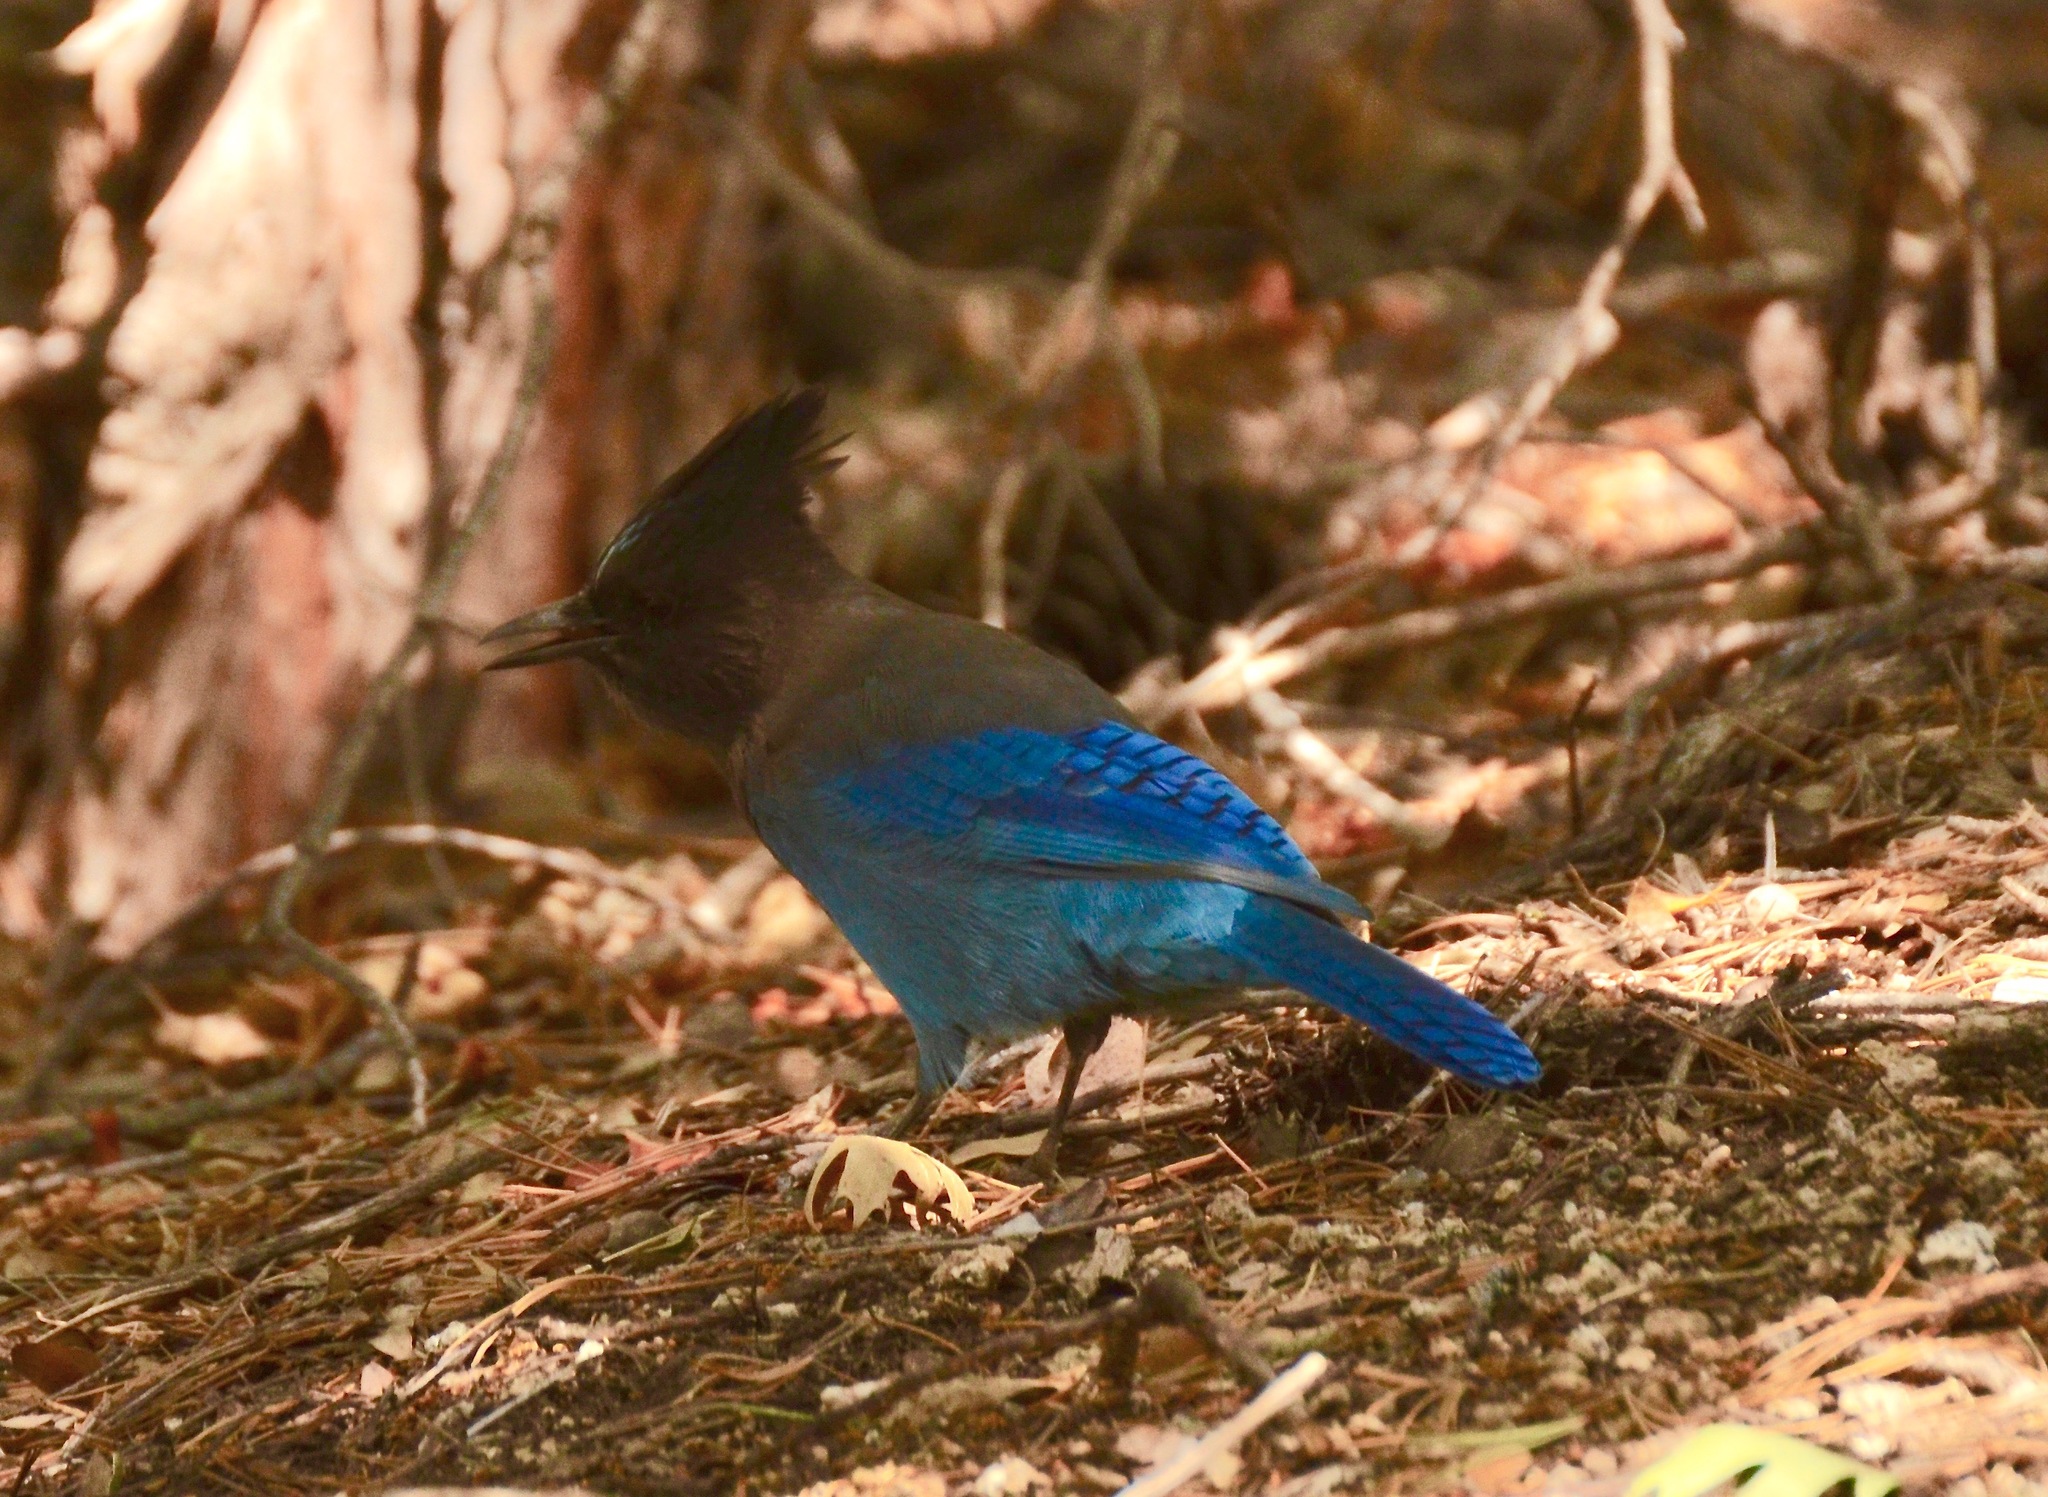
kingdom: Animalia
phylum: Chordata
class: Aves
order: Passeriformes
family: Corvidae
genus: Cyanocitta
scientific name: Cyanocitta stelleri
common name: Steller's jay
